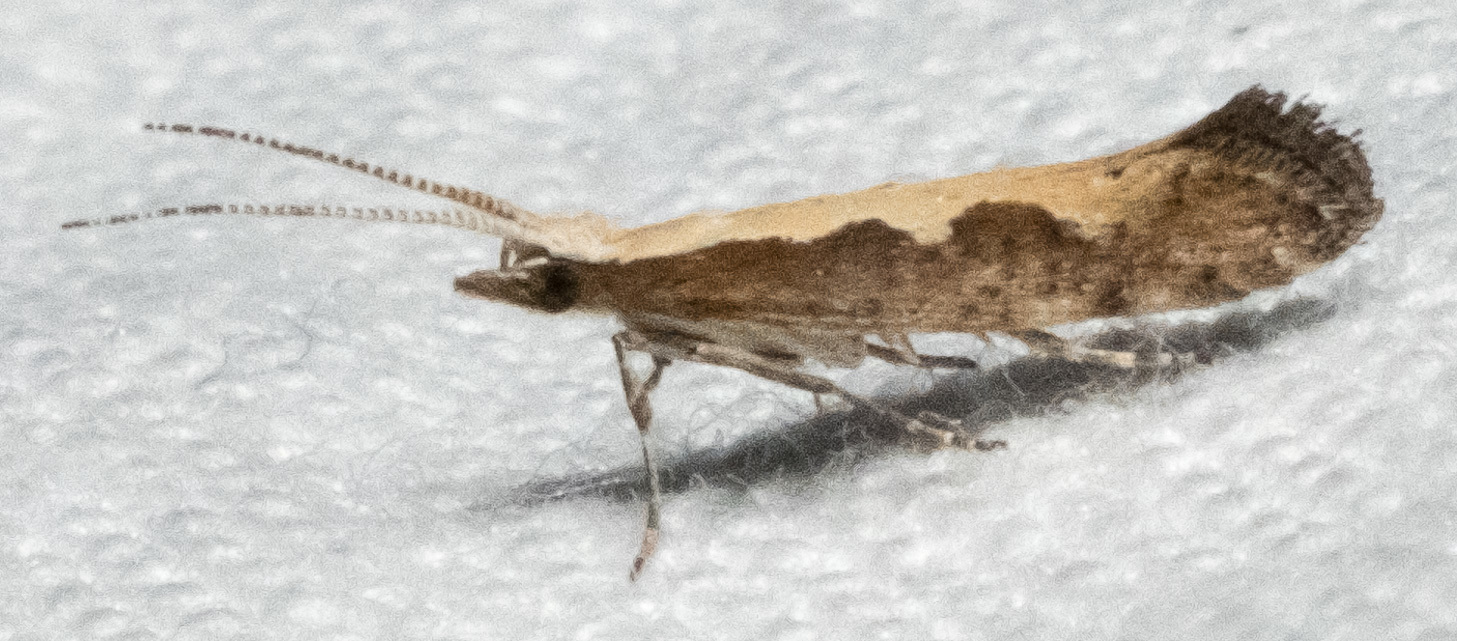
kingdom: Animalia
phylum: Arthropoda
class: Insecta
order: Lepidoptera
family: Plutellidae
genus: Plutella
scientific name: Plutella xylostella
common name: Diamond-back moth
